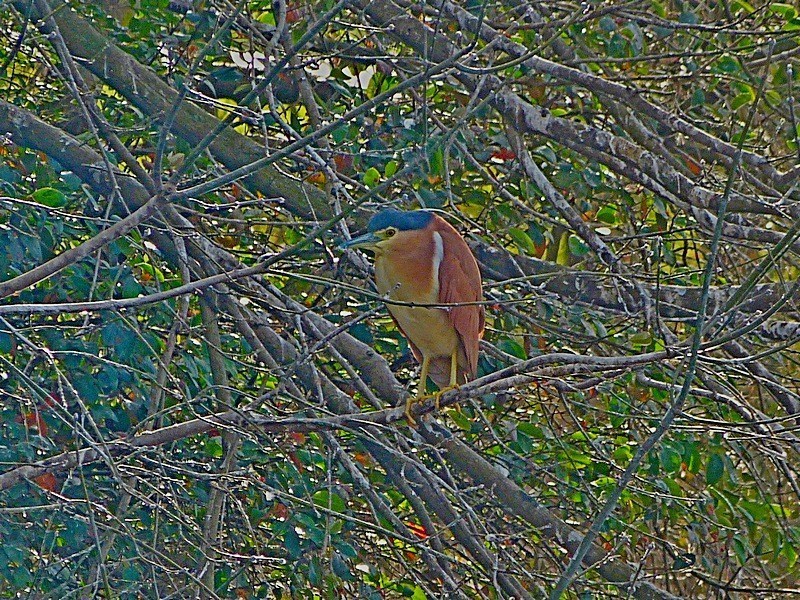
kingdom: Animalia
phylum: Chordata
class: Aves
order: Pelecaniformes
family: Ardeidae
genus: Nycticorax
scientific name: Nycticorax caledonicus
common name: Rufous night-heron
